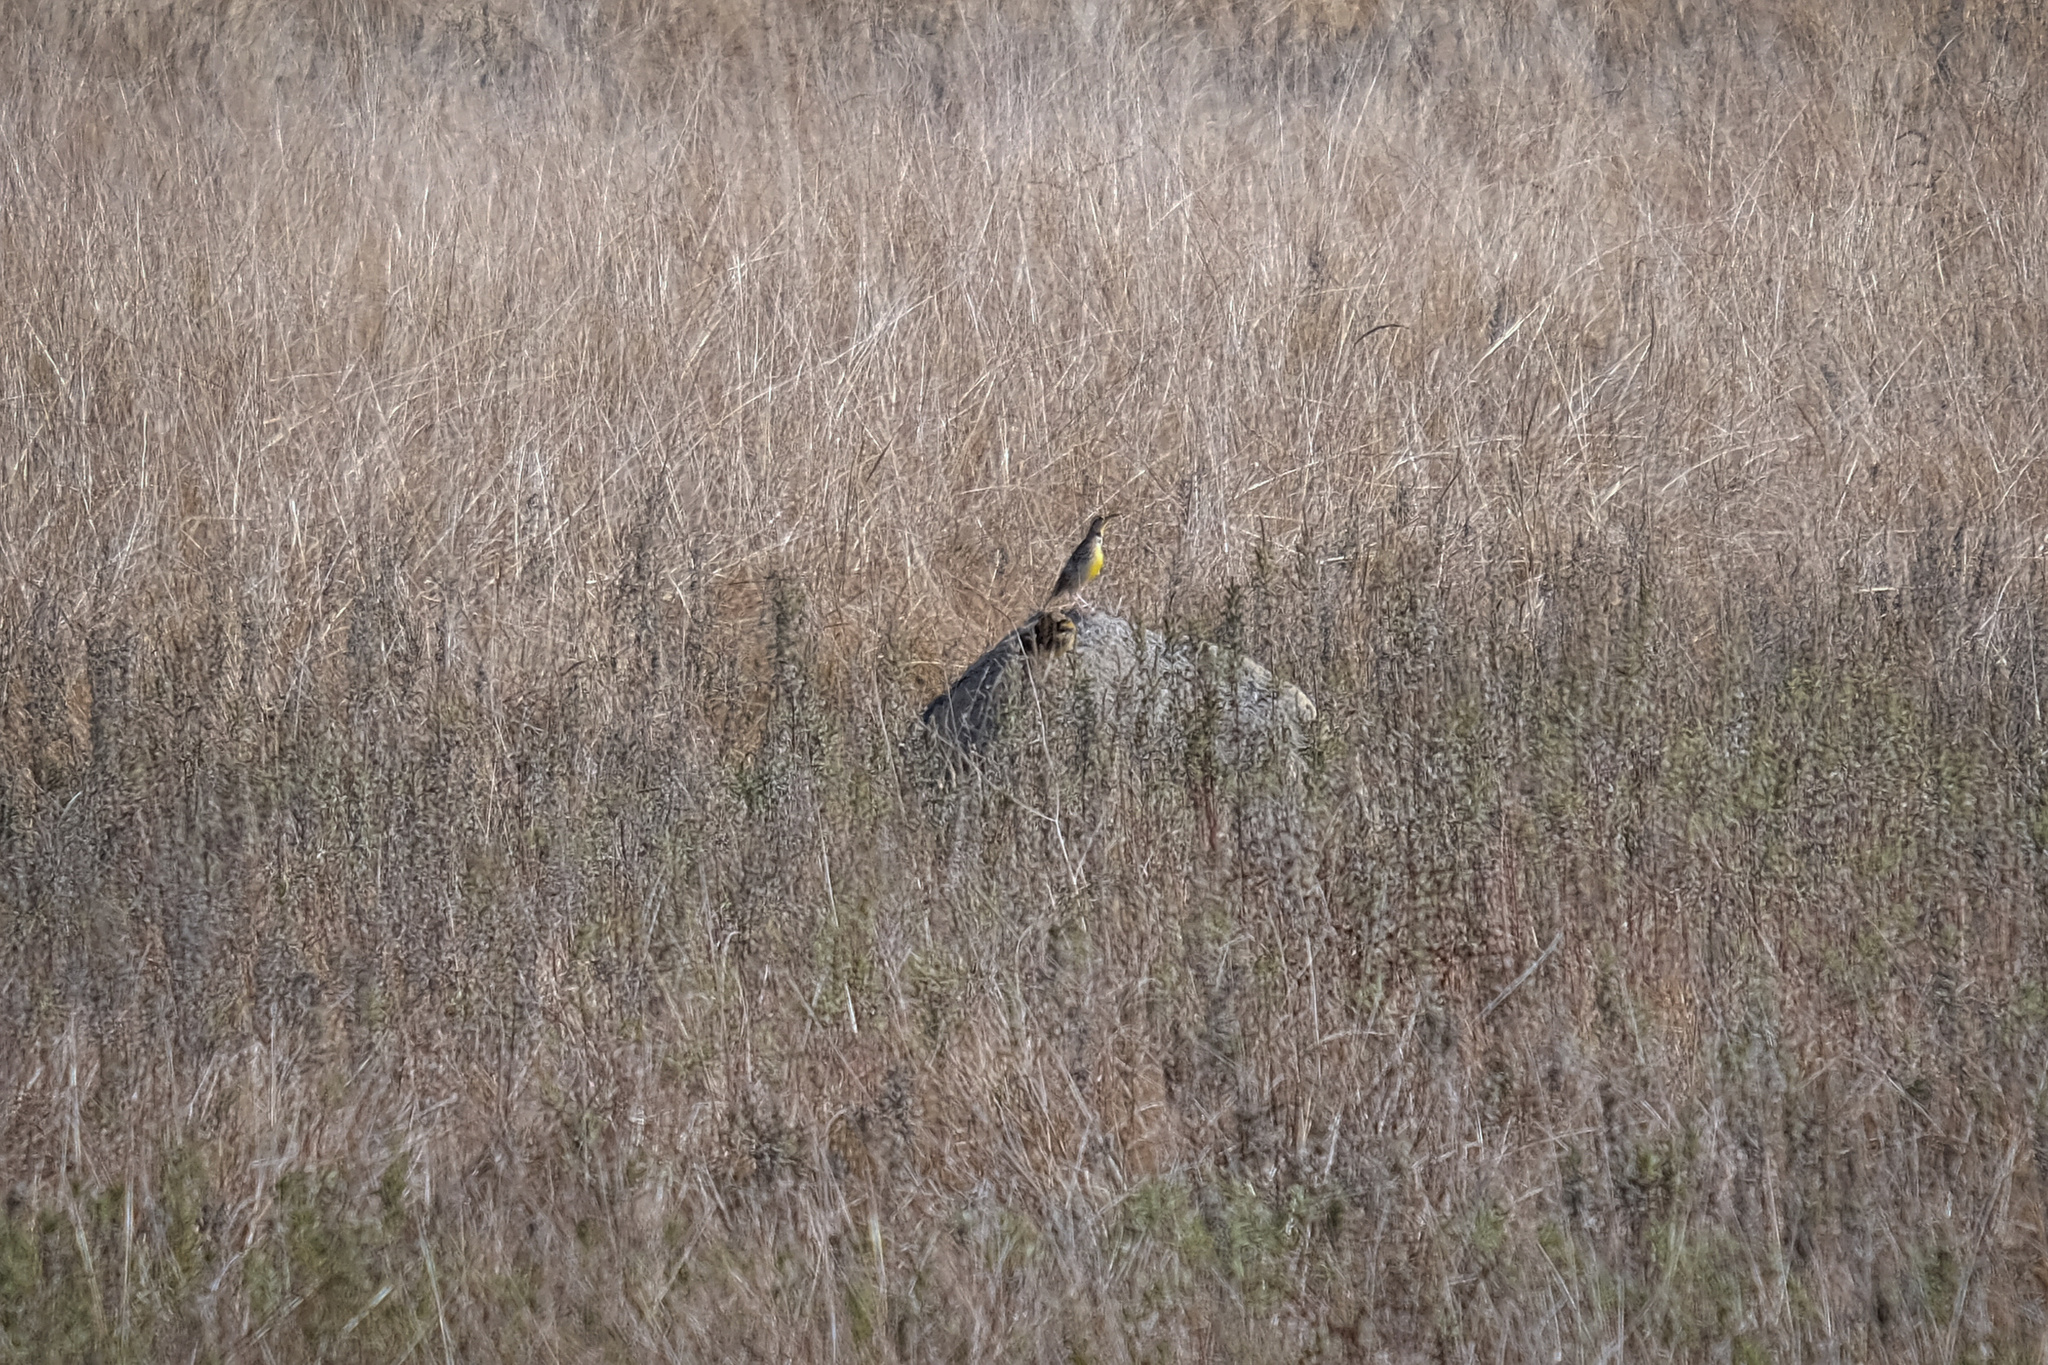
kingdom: Animalia
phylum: Chordata
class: Aves
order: Passeriformes
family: Icteridae
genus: Sturnella
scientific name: Sturnella neglecta
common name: Western meadowlark
